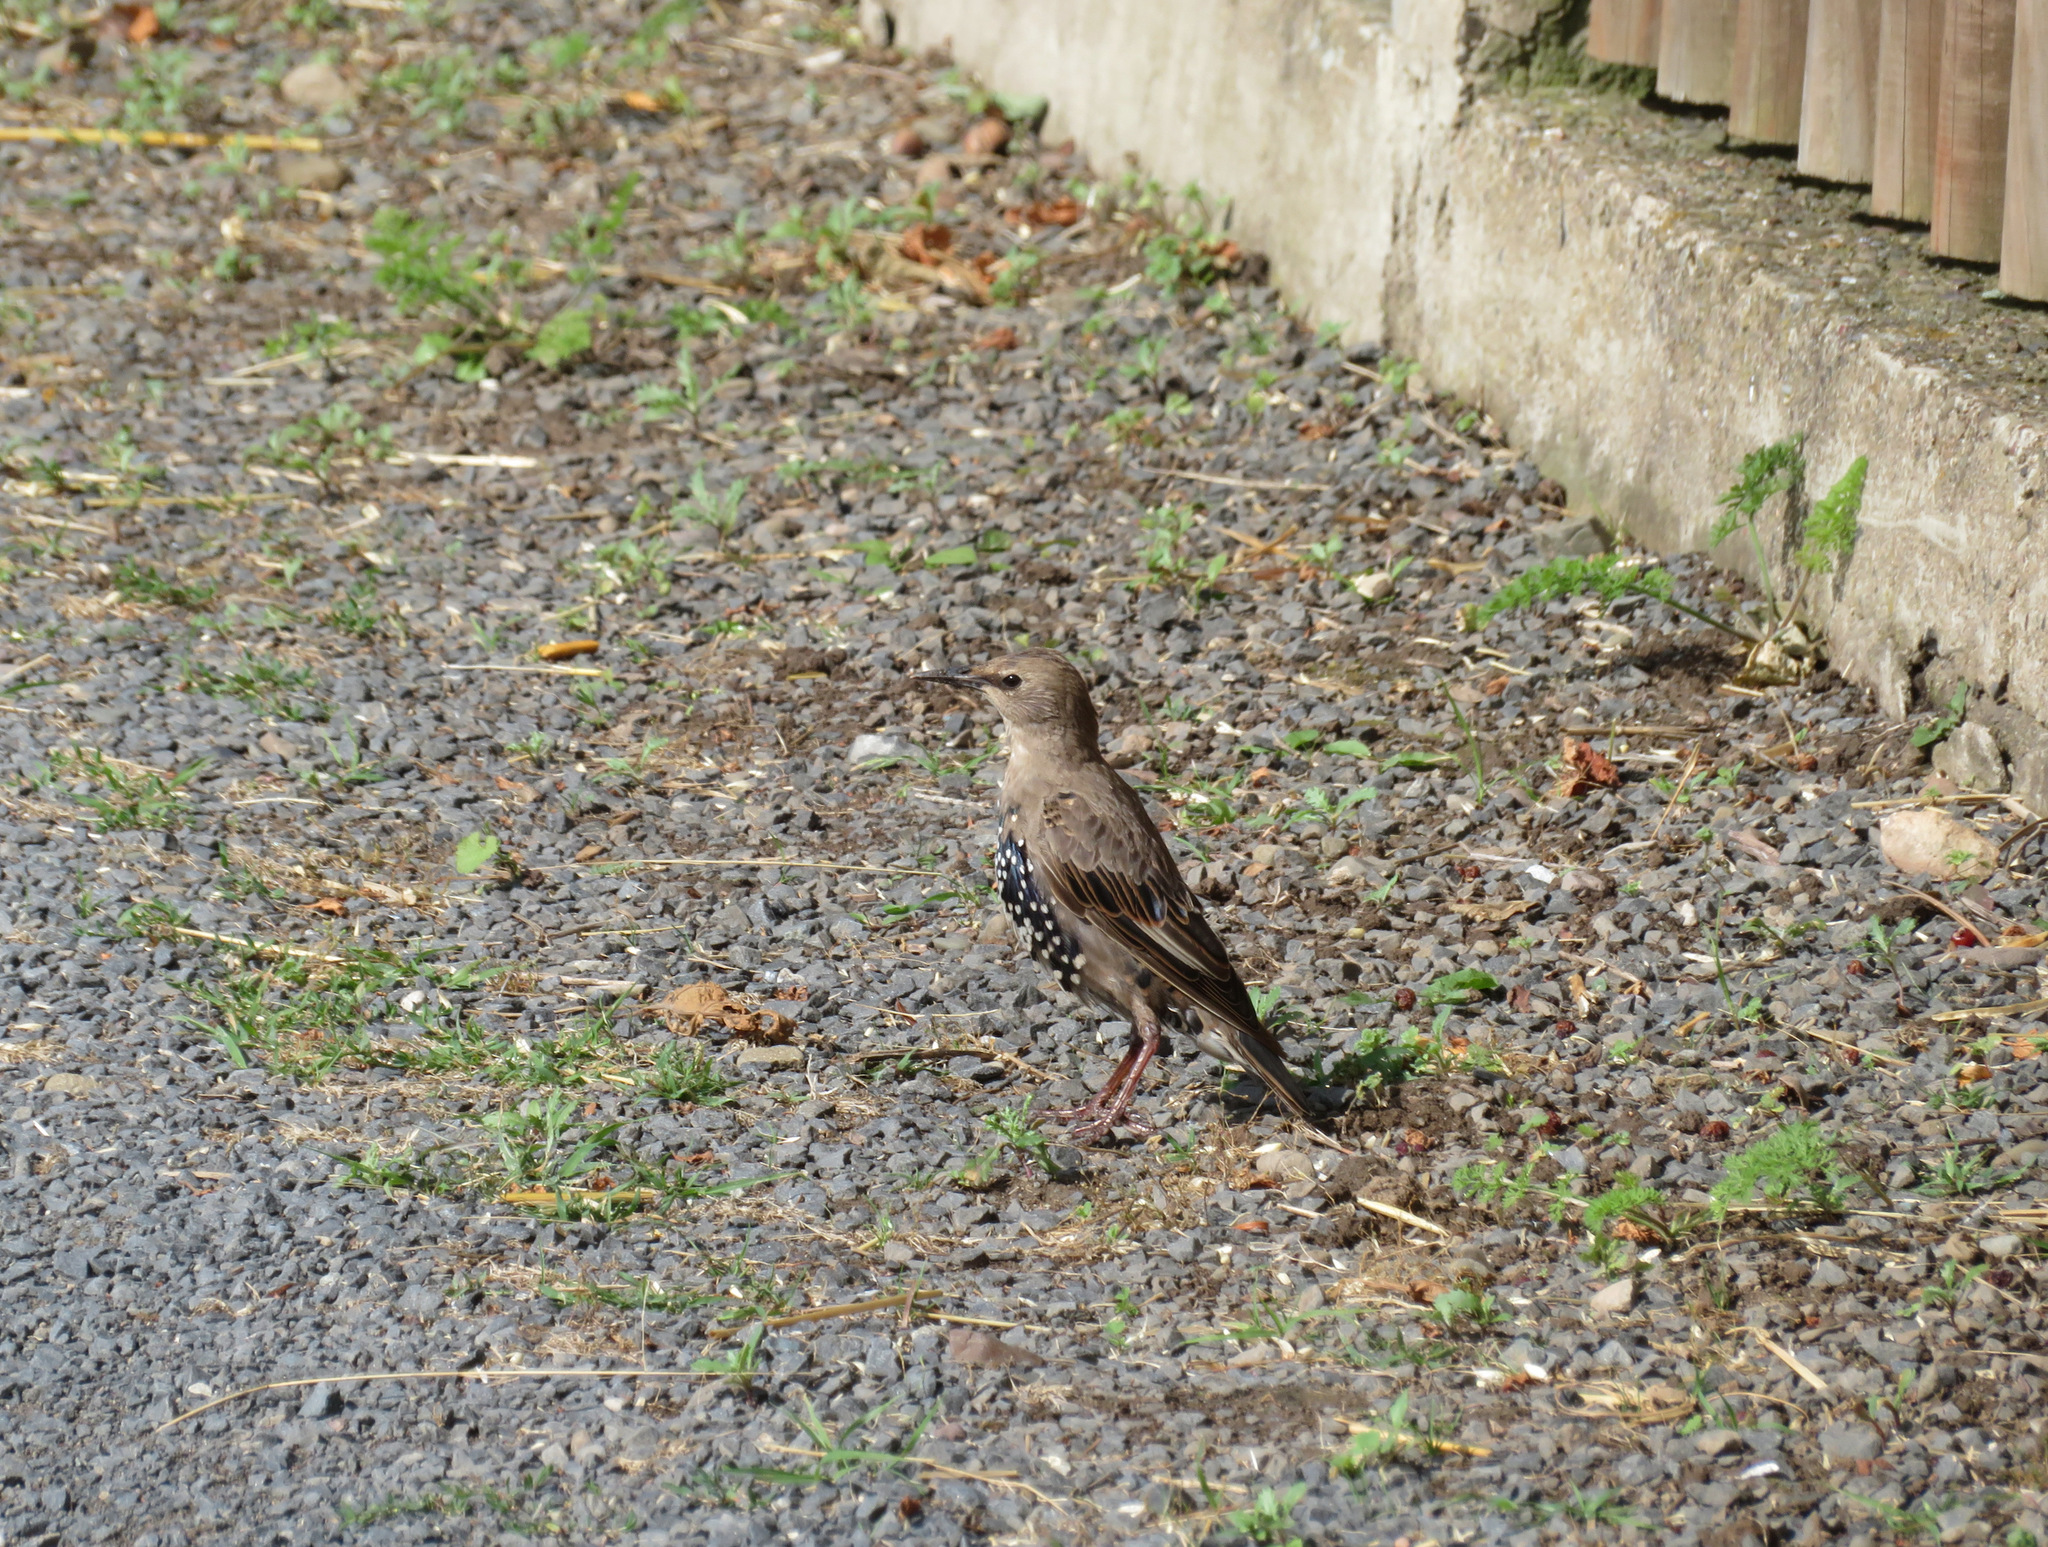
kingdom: Animalia
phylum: Chordata
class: Aves
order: Passeriformes
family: Sturnidae
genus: Sturnus
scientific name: Sturnus vulgaris
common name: Common starling
